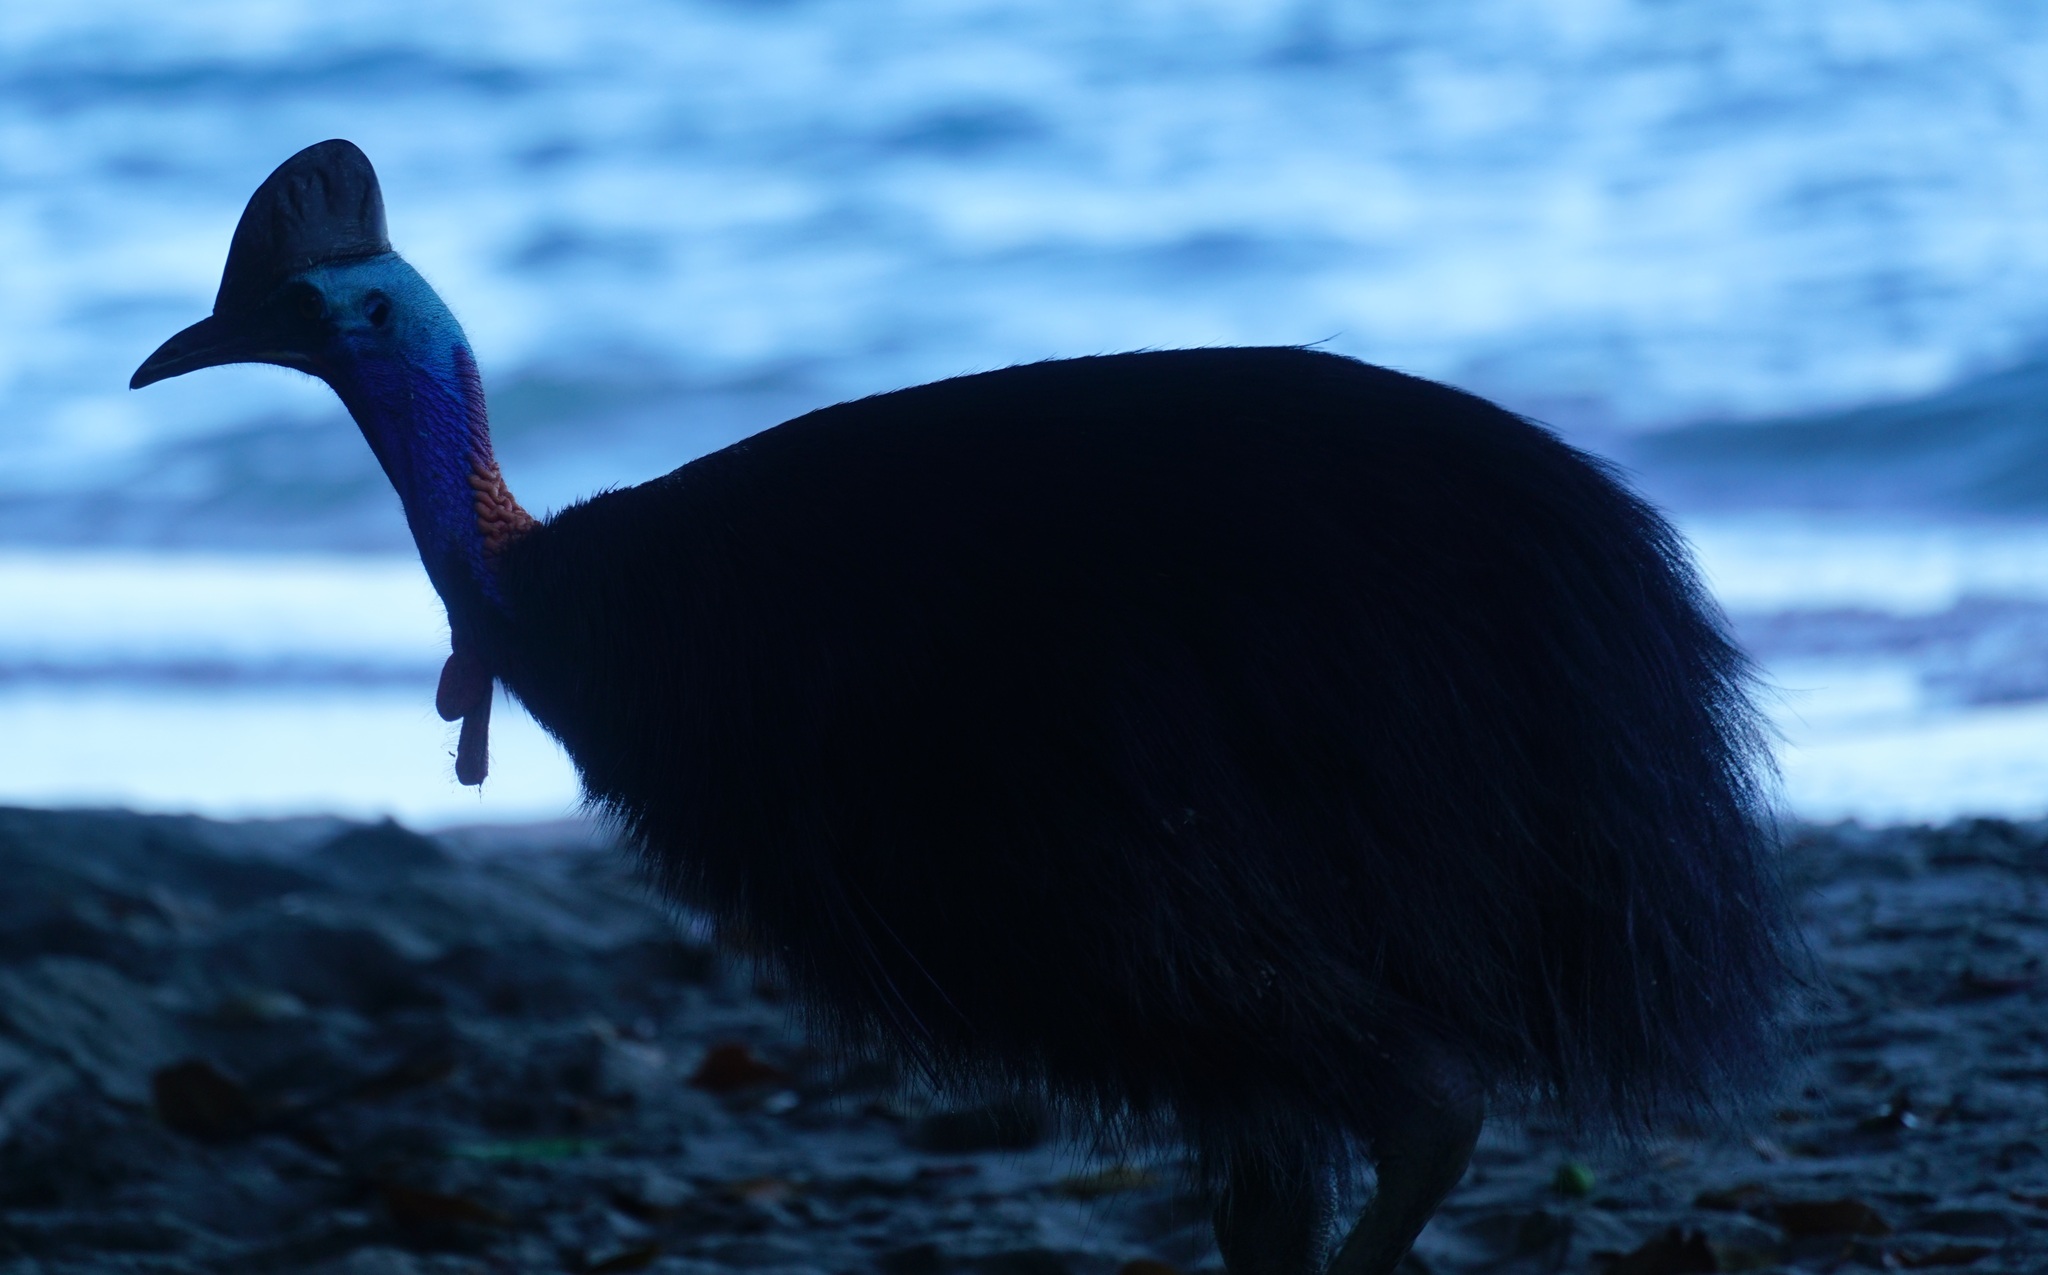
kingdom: Animalia
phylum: Chordata
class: Aves
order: Casuariiformes
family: Casuariidae
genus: Casuarius
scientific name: Casuarius casuarius
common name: Southern cassowary
